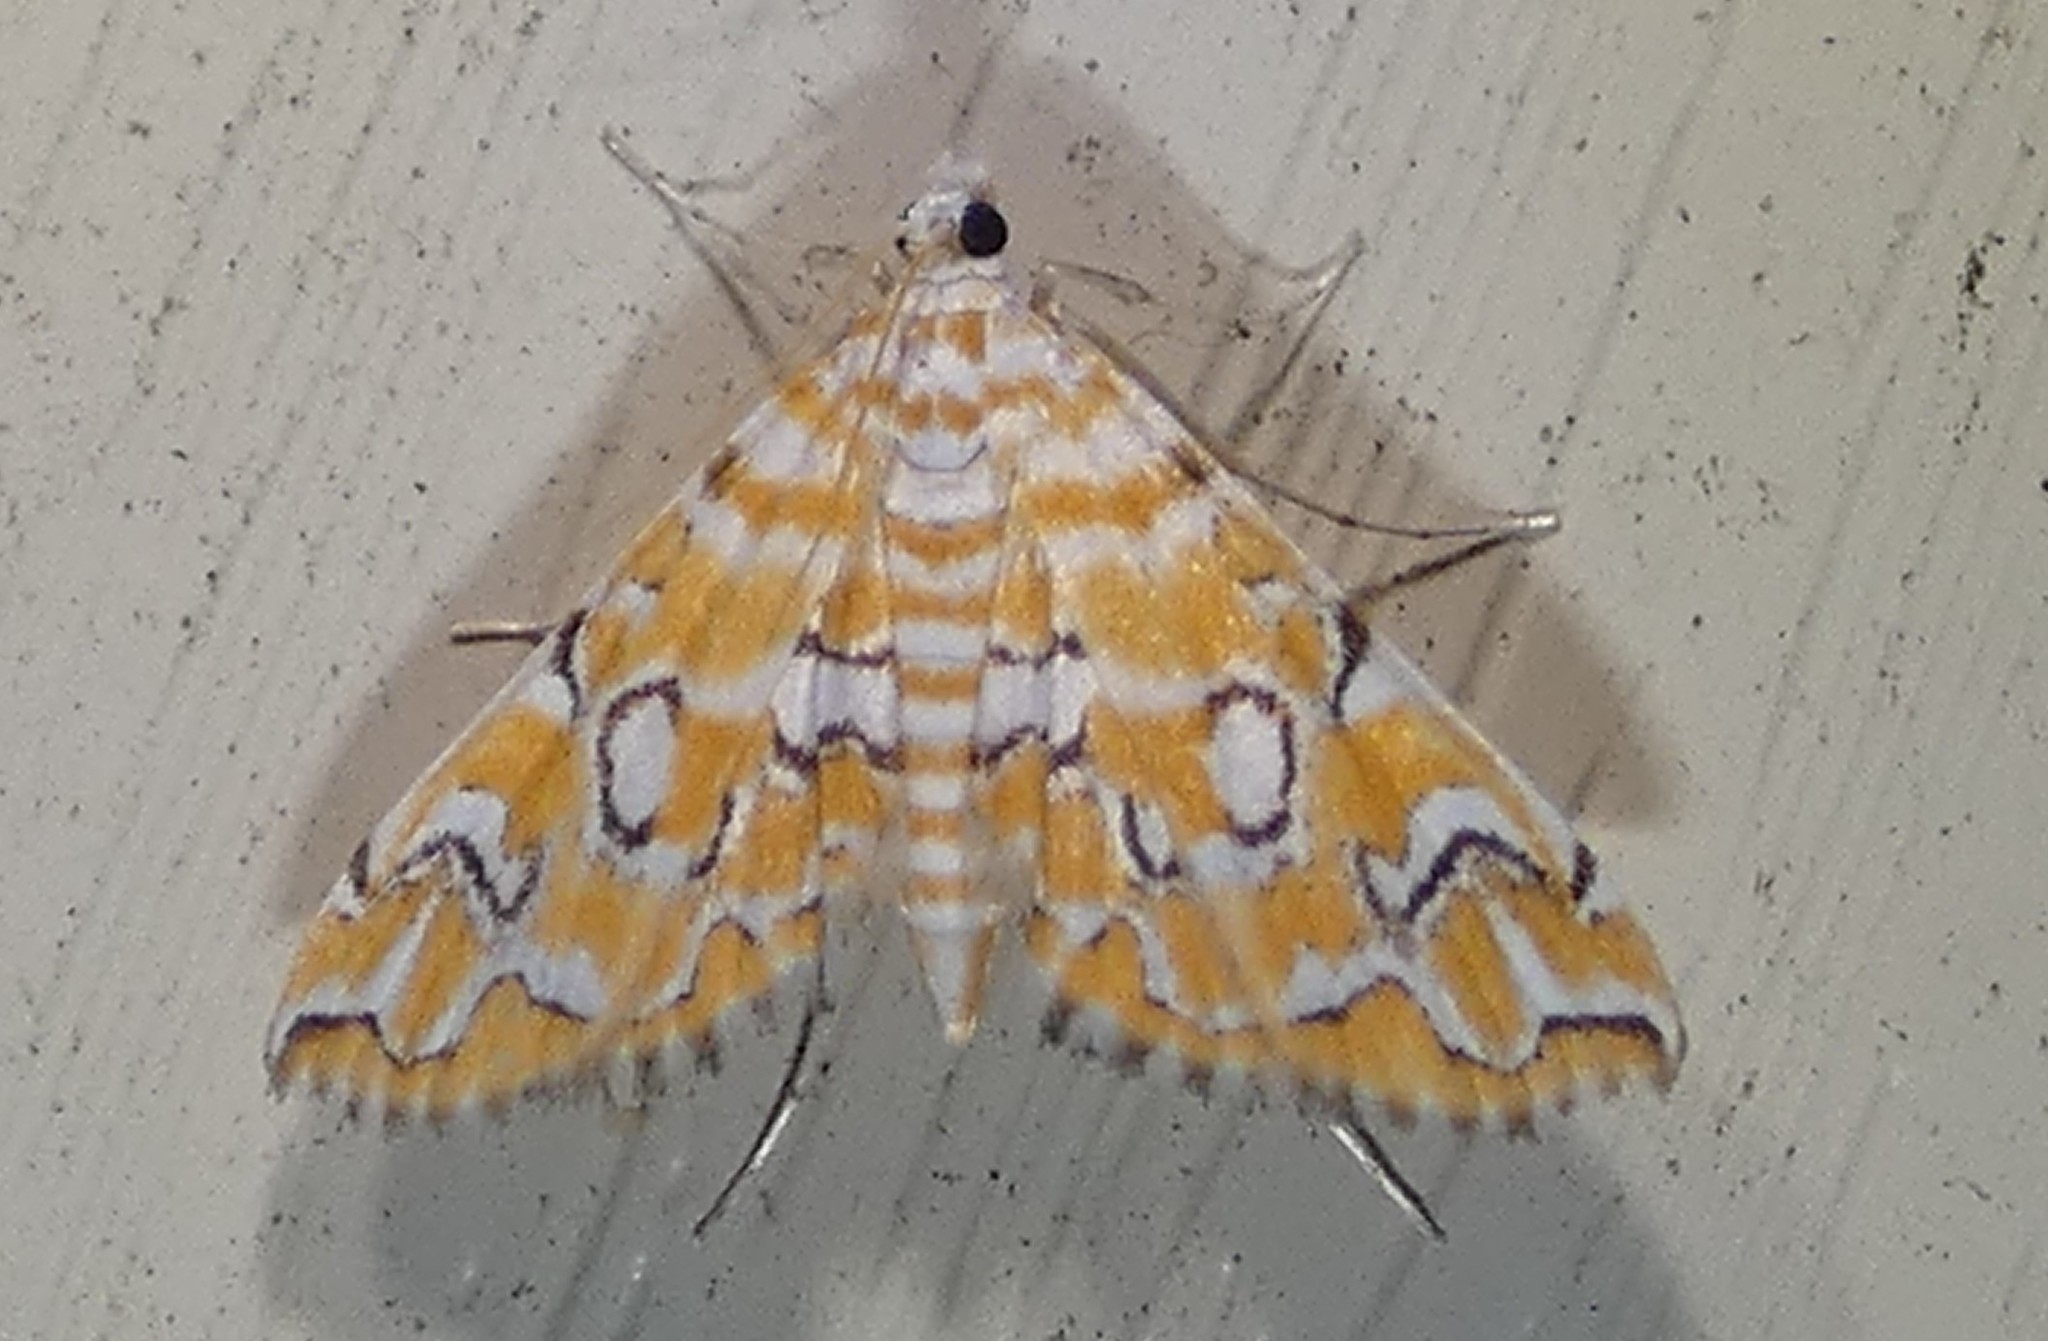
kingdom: Animalia
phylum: Arthropoda
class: Insecta
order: Lepidoptera
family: Crambidae
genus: Elophila
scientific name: Elophila icciusalis
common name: Pondside pyralid moth
